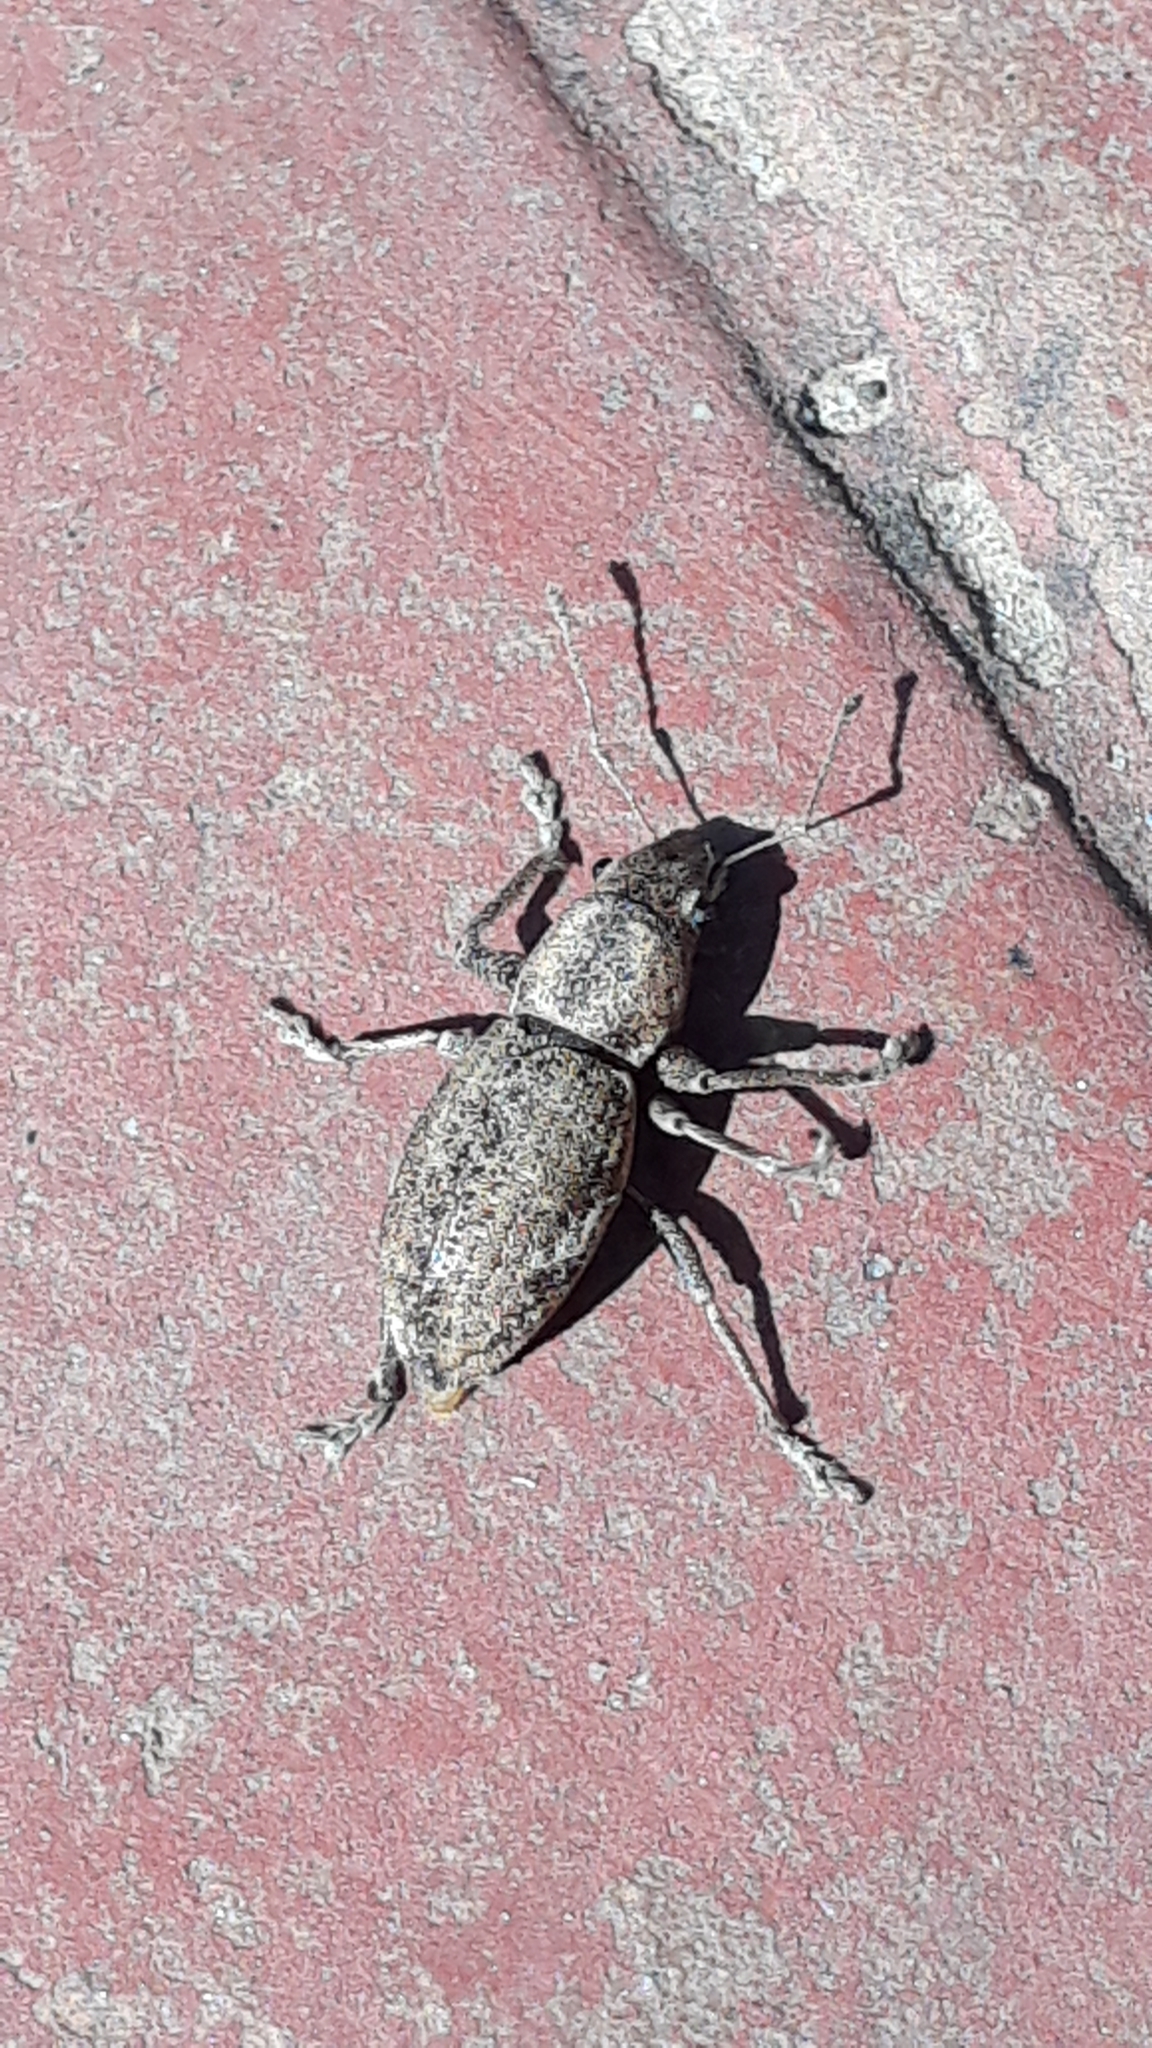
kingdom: Animalia
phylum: Arthropoda
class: Insecta
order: Coleoptera
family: Curculionidae
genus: Naupactus
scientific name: Naupactus cervinus
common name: Fuller rose beetle
